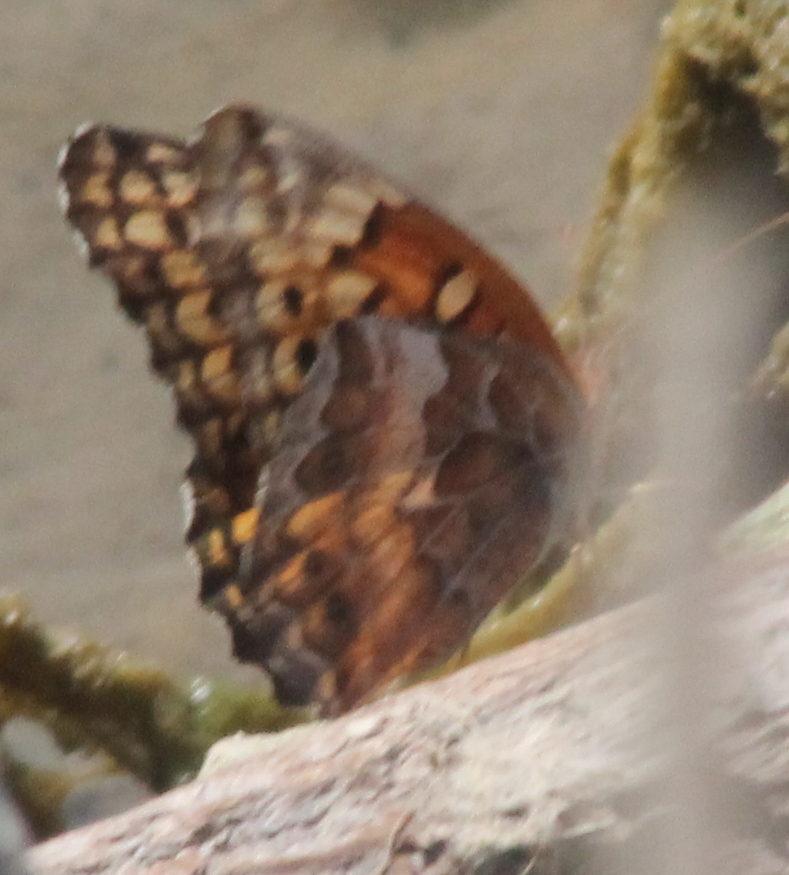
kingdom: Animalia
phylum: Arthropoda
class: Insecta
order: Lepidoptera
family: Nymphalidae
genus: Euptoieta
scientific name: Euptoieta claudia
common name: Variegated fritillary
